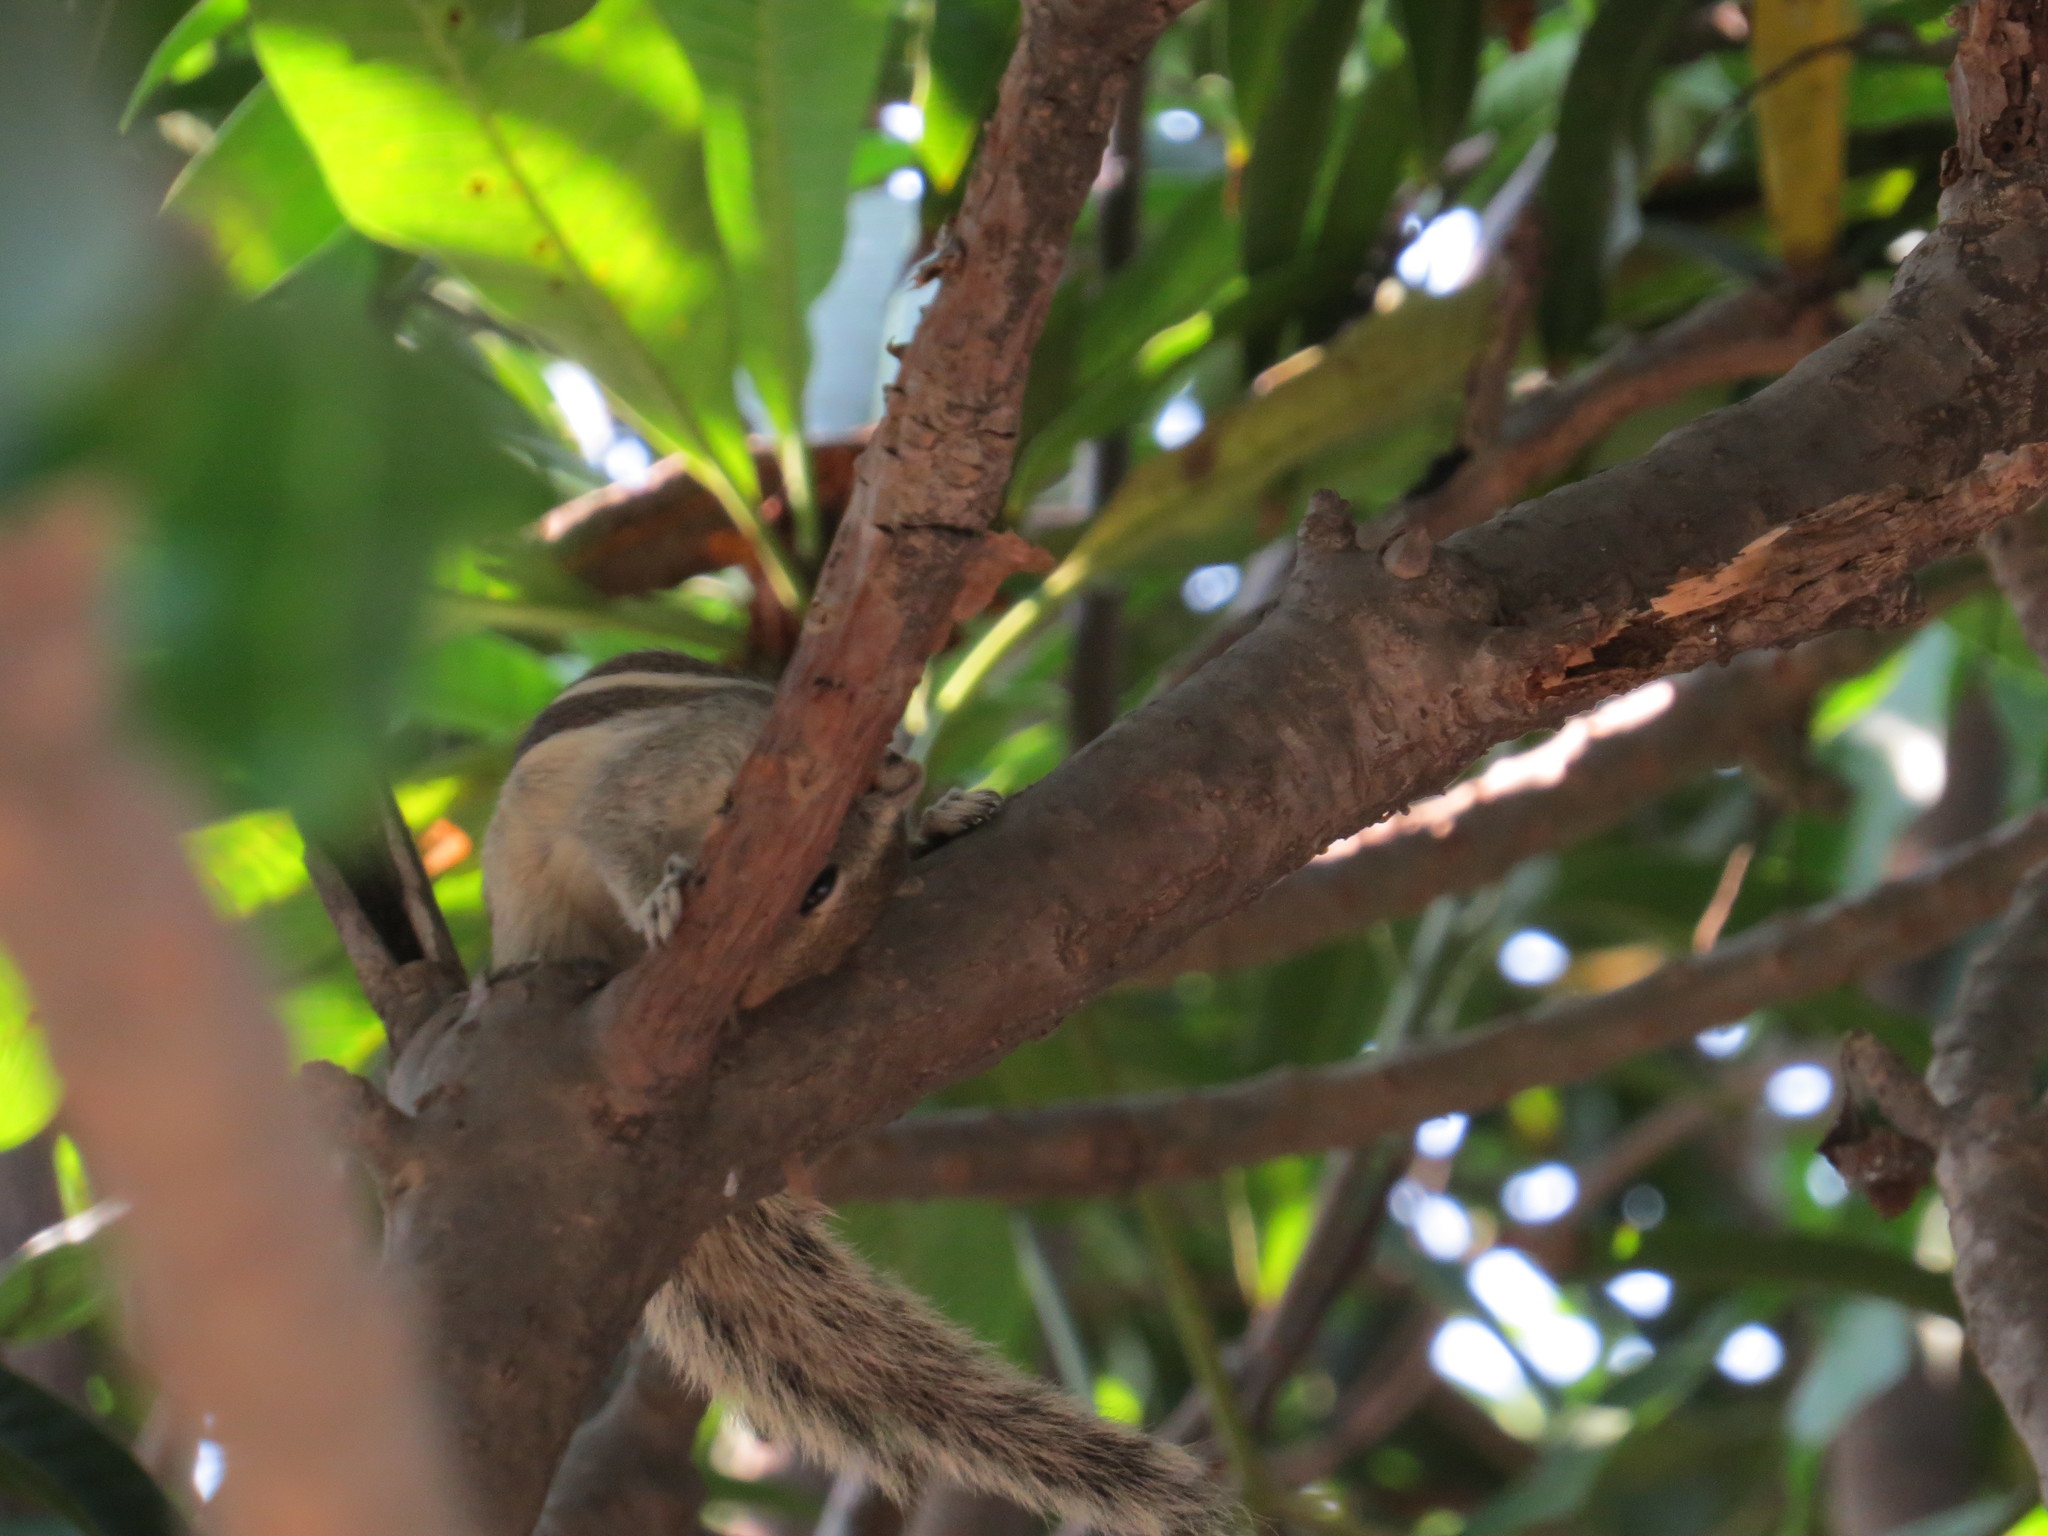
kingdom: Animalia
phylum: Chordata
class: Mammalia
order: Rodentia
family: Sciuridae
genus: Funambulus
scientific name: Funambulus pennantii
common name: Northern palm squirrel
